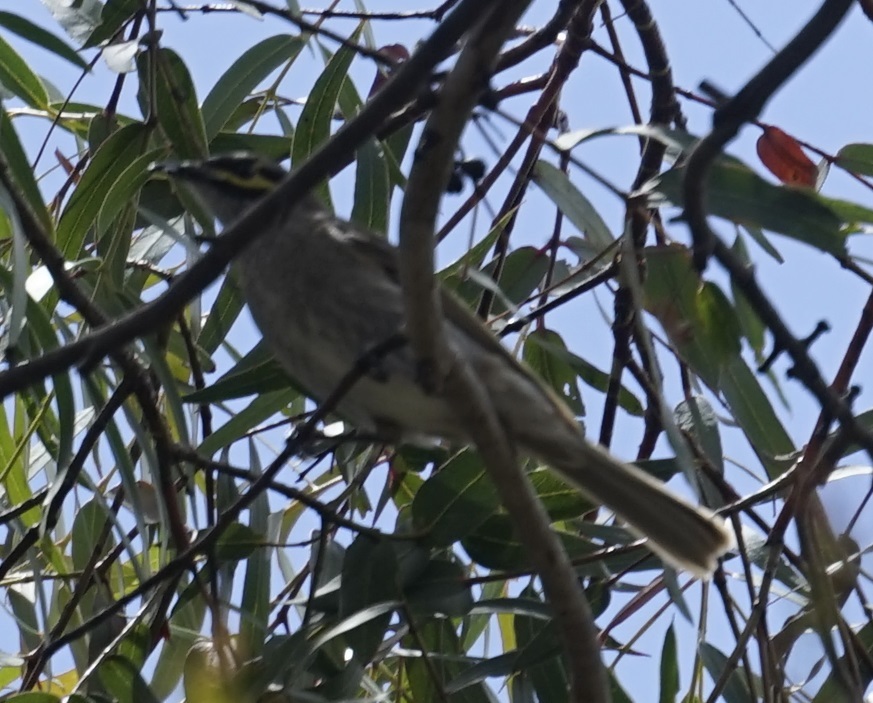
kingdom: Animalia
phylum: Chordata
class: Aves
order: Passeriformes
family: Meliphagidae
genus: Caligavis
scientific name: Caligavis chrysops
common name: Yellow-faced honeyeater
